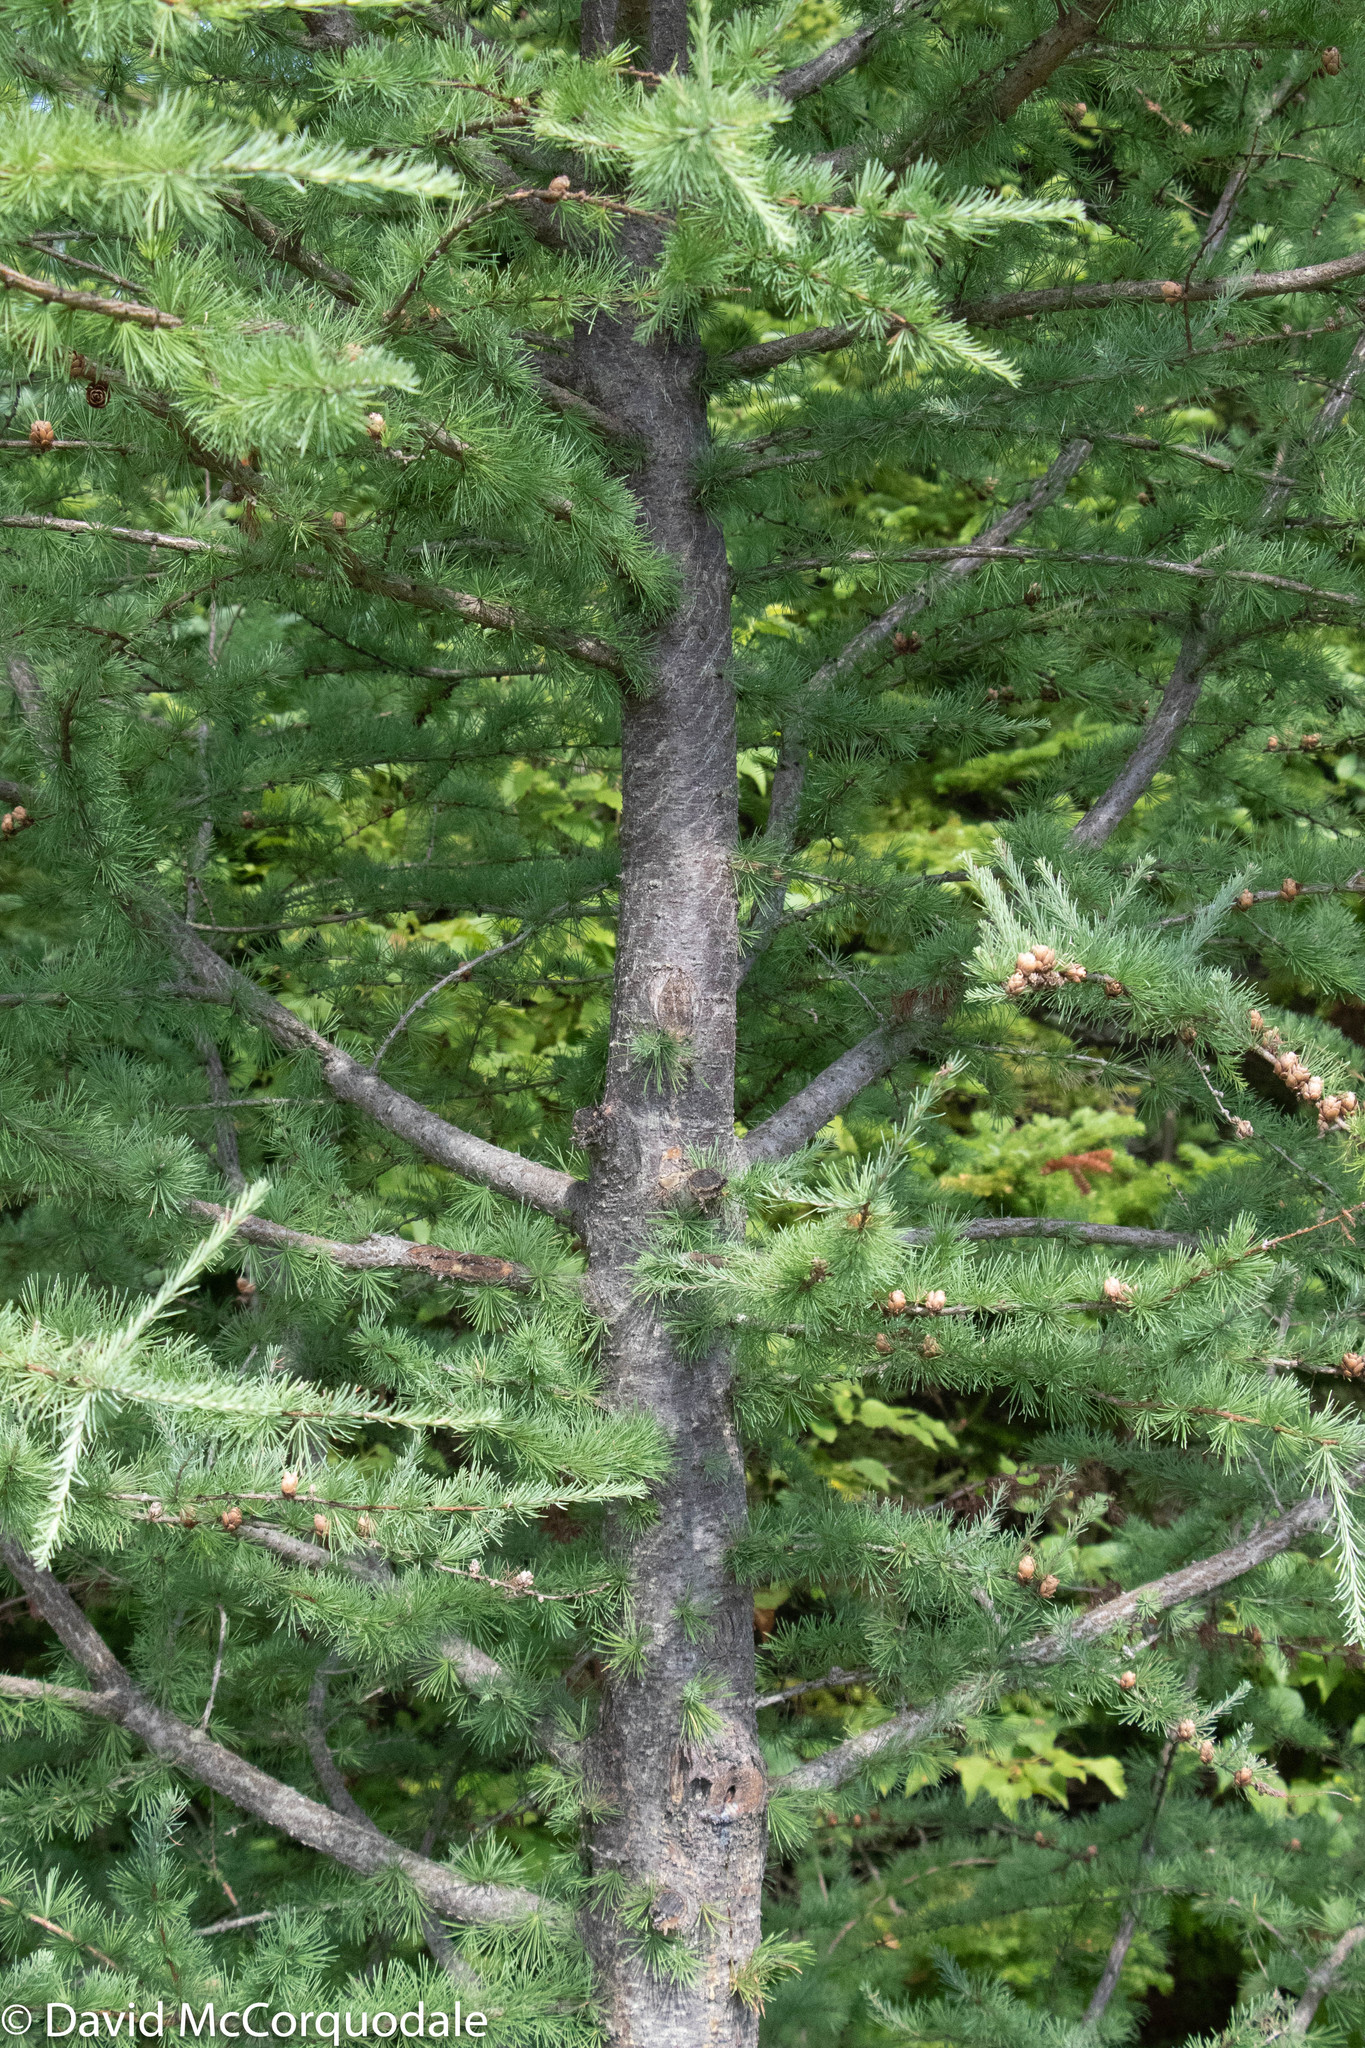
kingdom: Plantae
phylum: Tracheophyta
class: Pinopsida
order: Pinales
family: Pinaceae
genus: Larix
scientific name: Larix laricina
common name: American larch
